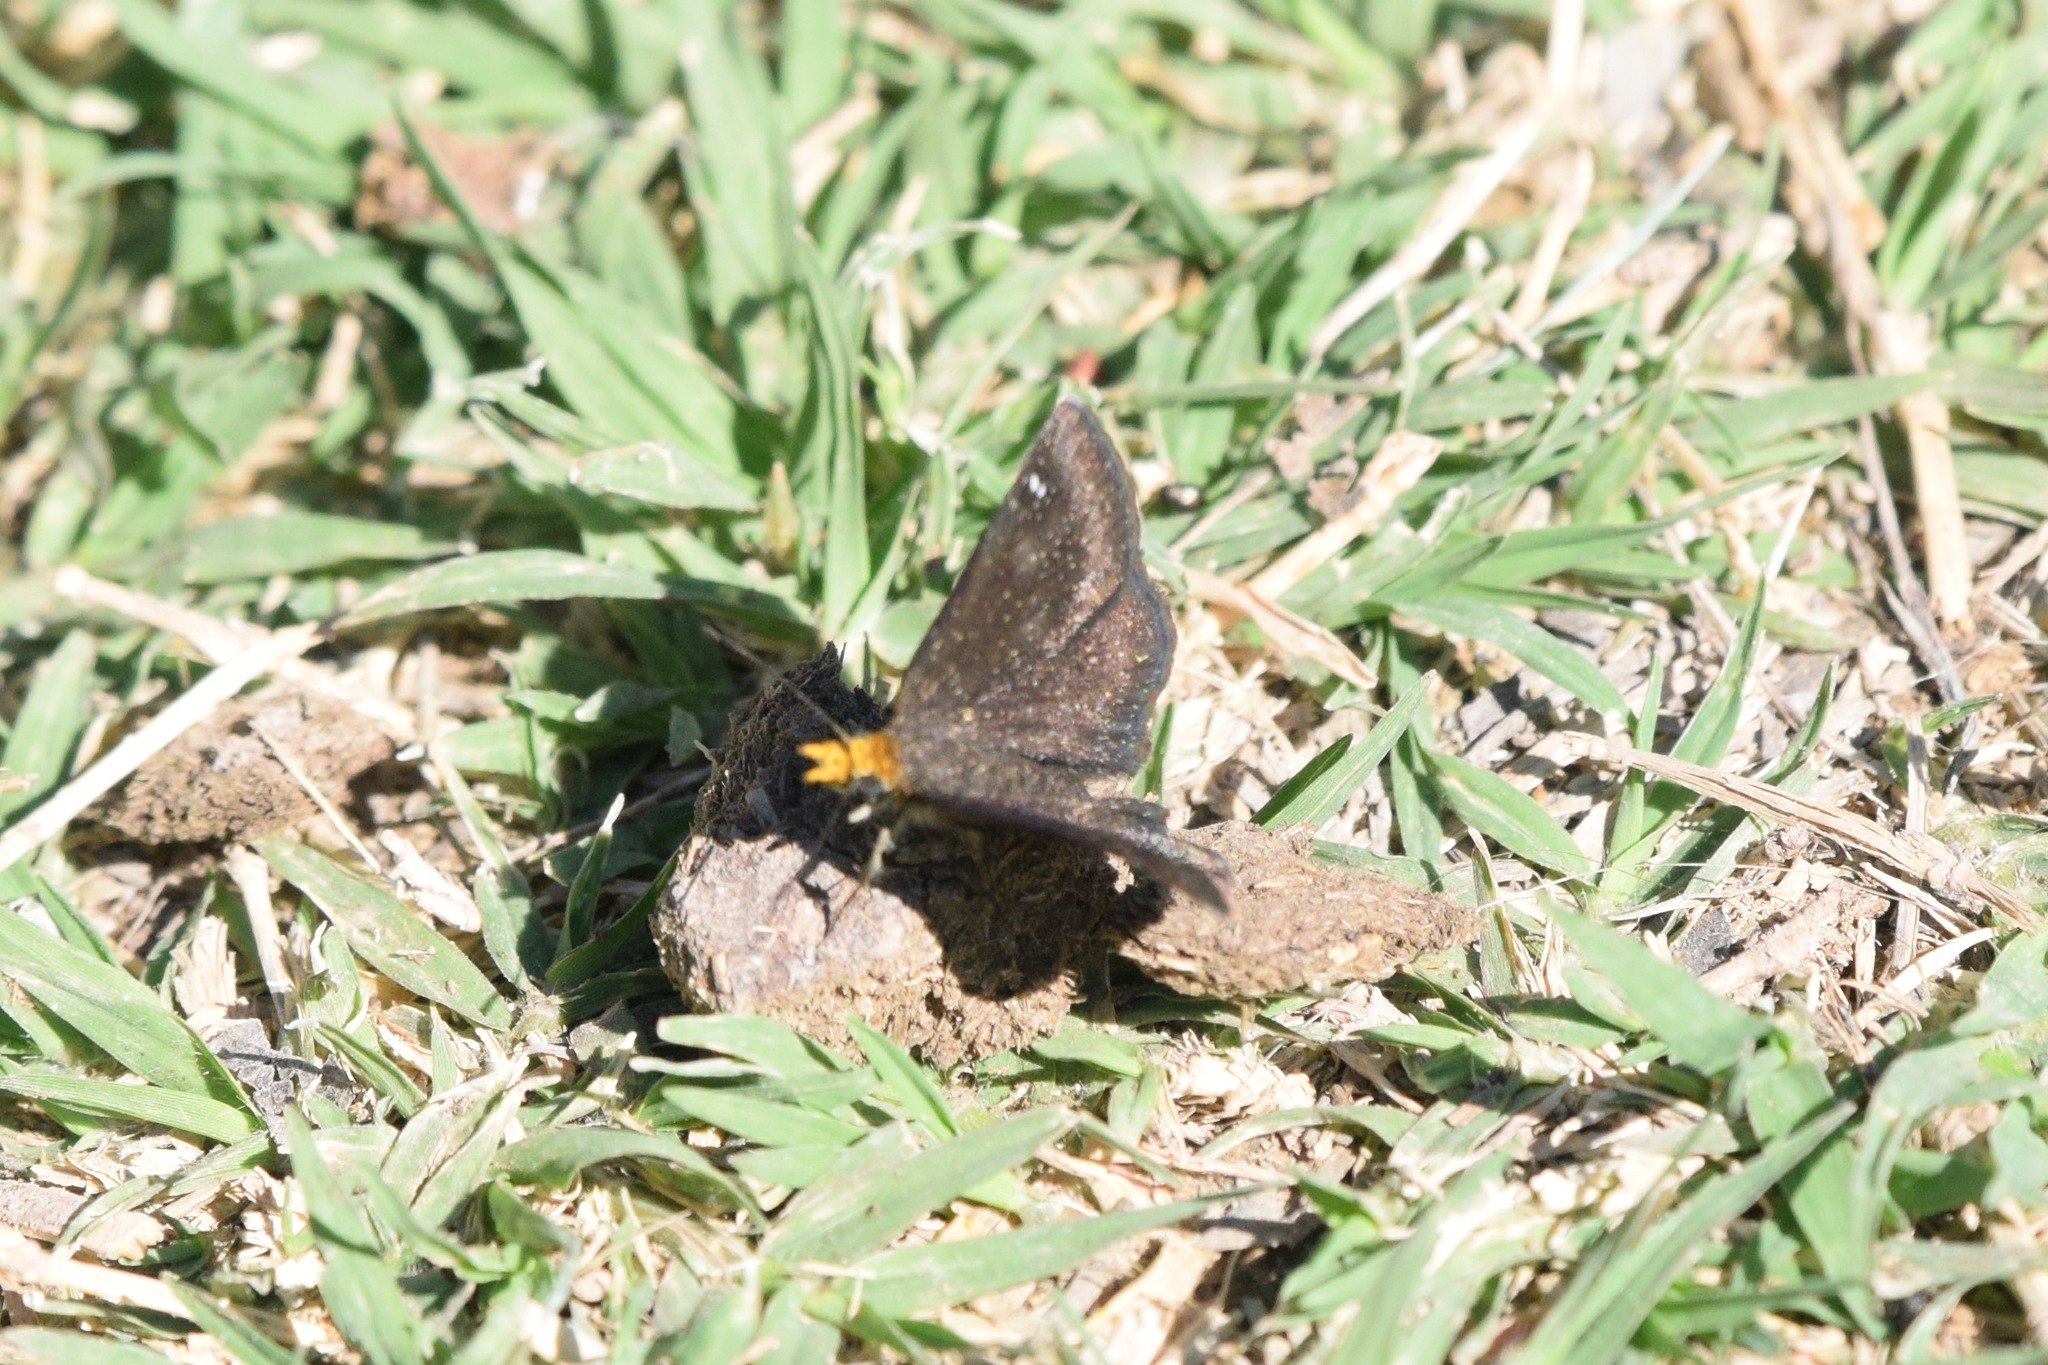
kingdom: Animalia
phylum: Arthropoda
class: Insecta
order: Lepidoptera
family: Hesperiidae
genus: Staphylus
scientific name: Staphylus ceos
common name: Golden-headed scallopwing
